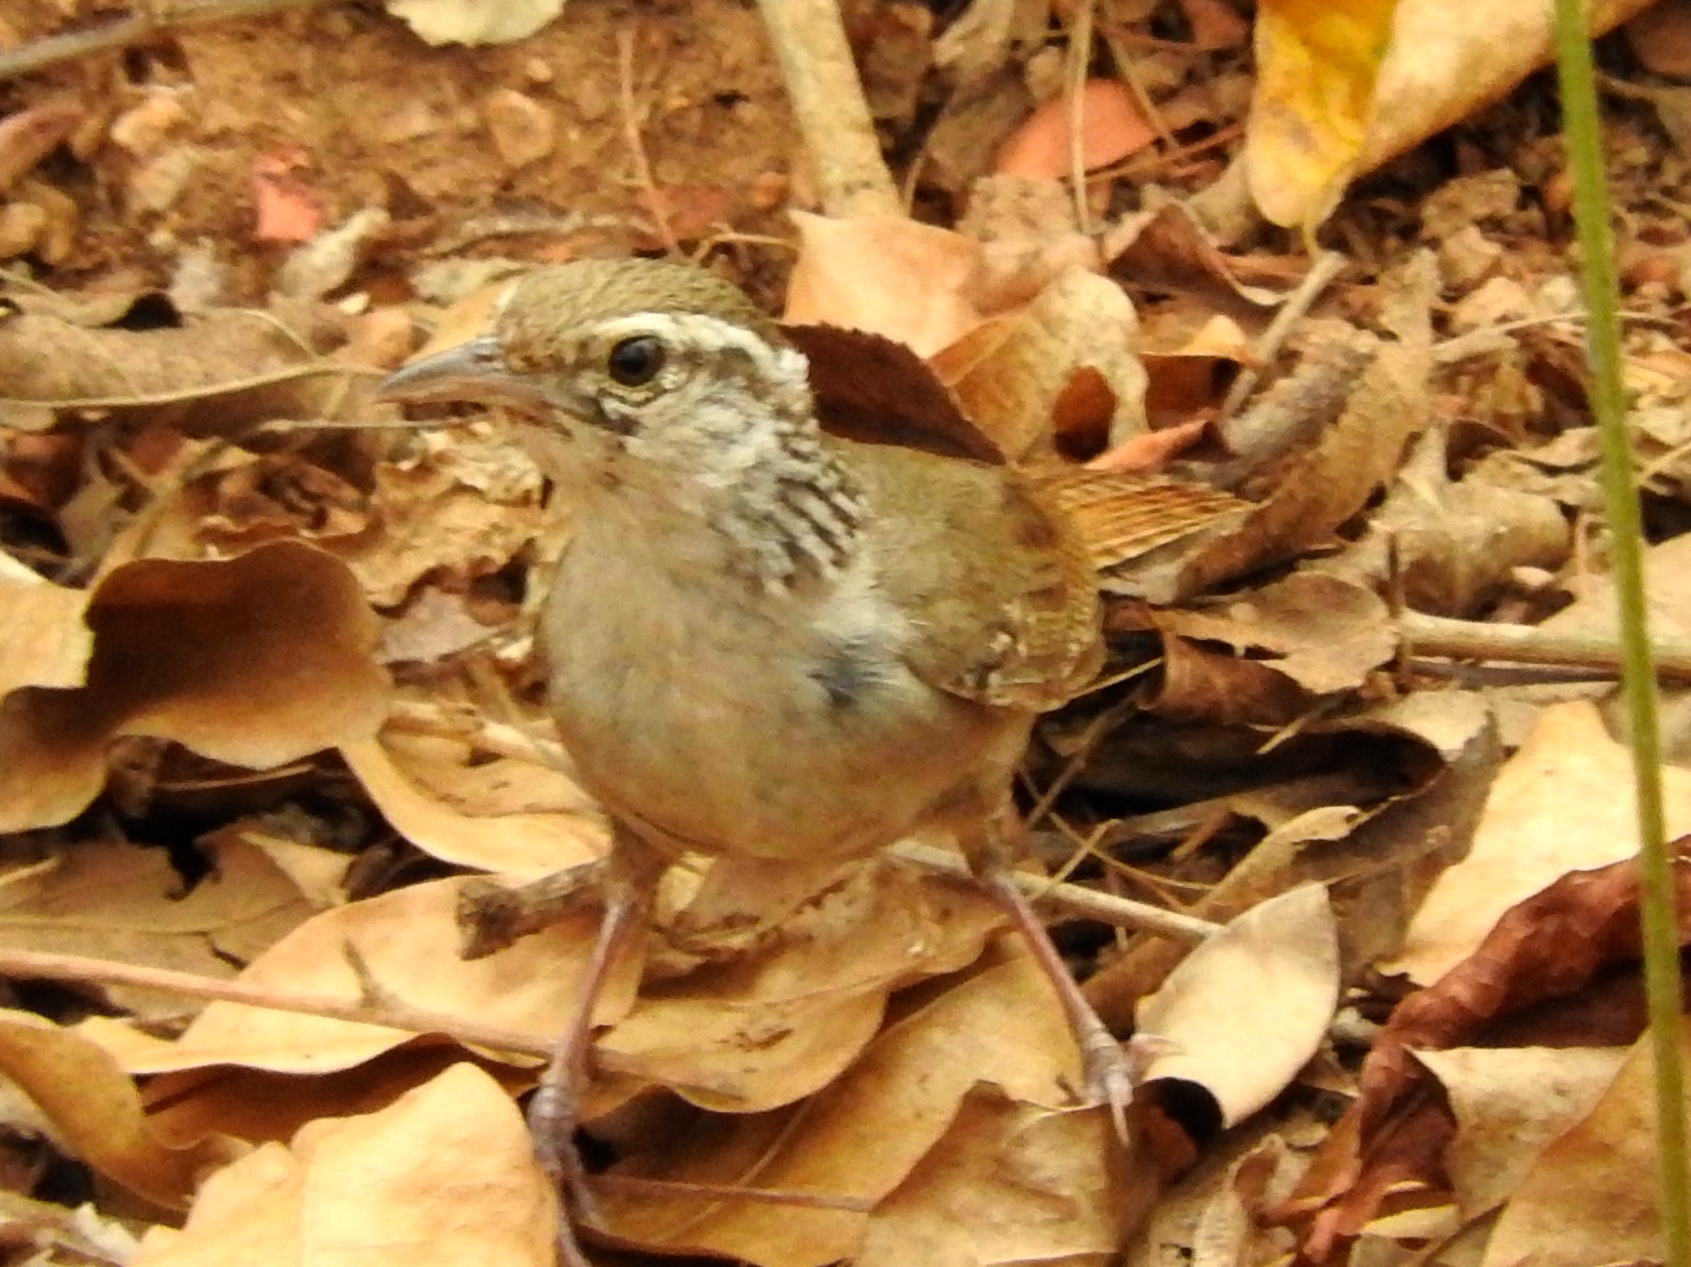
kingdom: Animalia
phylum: Chordata
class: Aves
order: Passeriformes
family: Troglodytidae
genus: Thryophilus
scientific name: Thryophilus sinaloa
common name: Sinaloa wren
